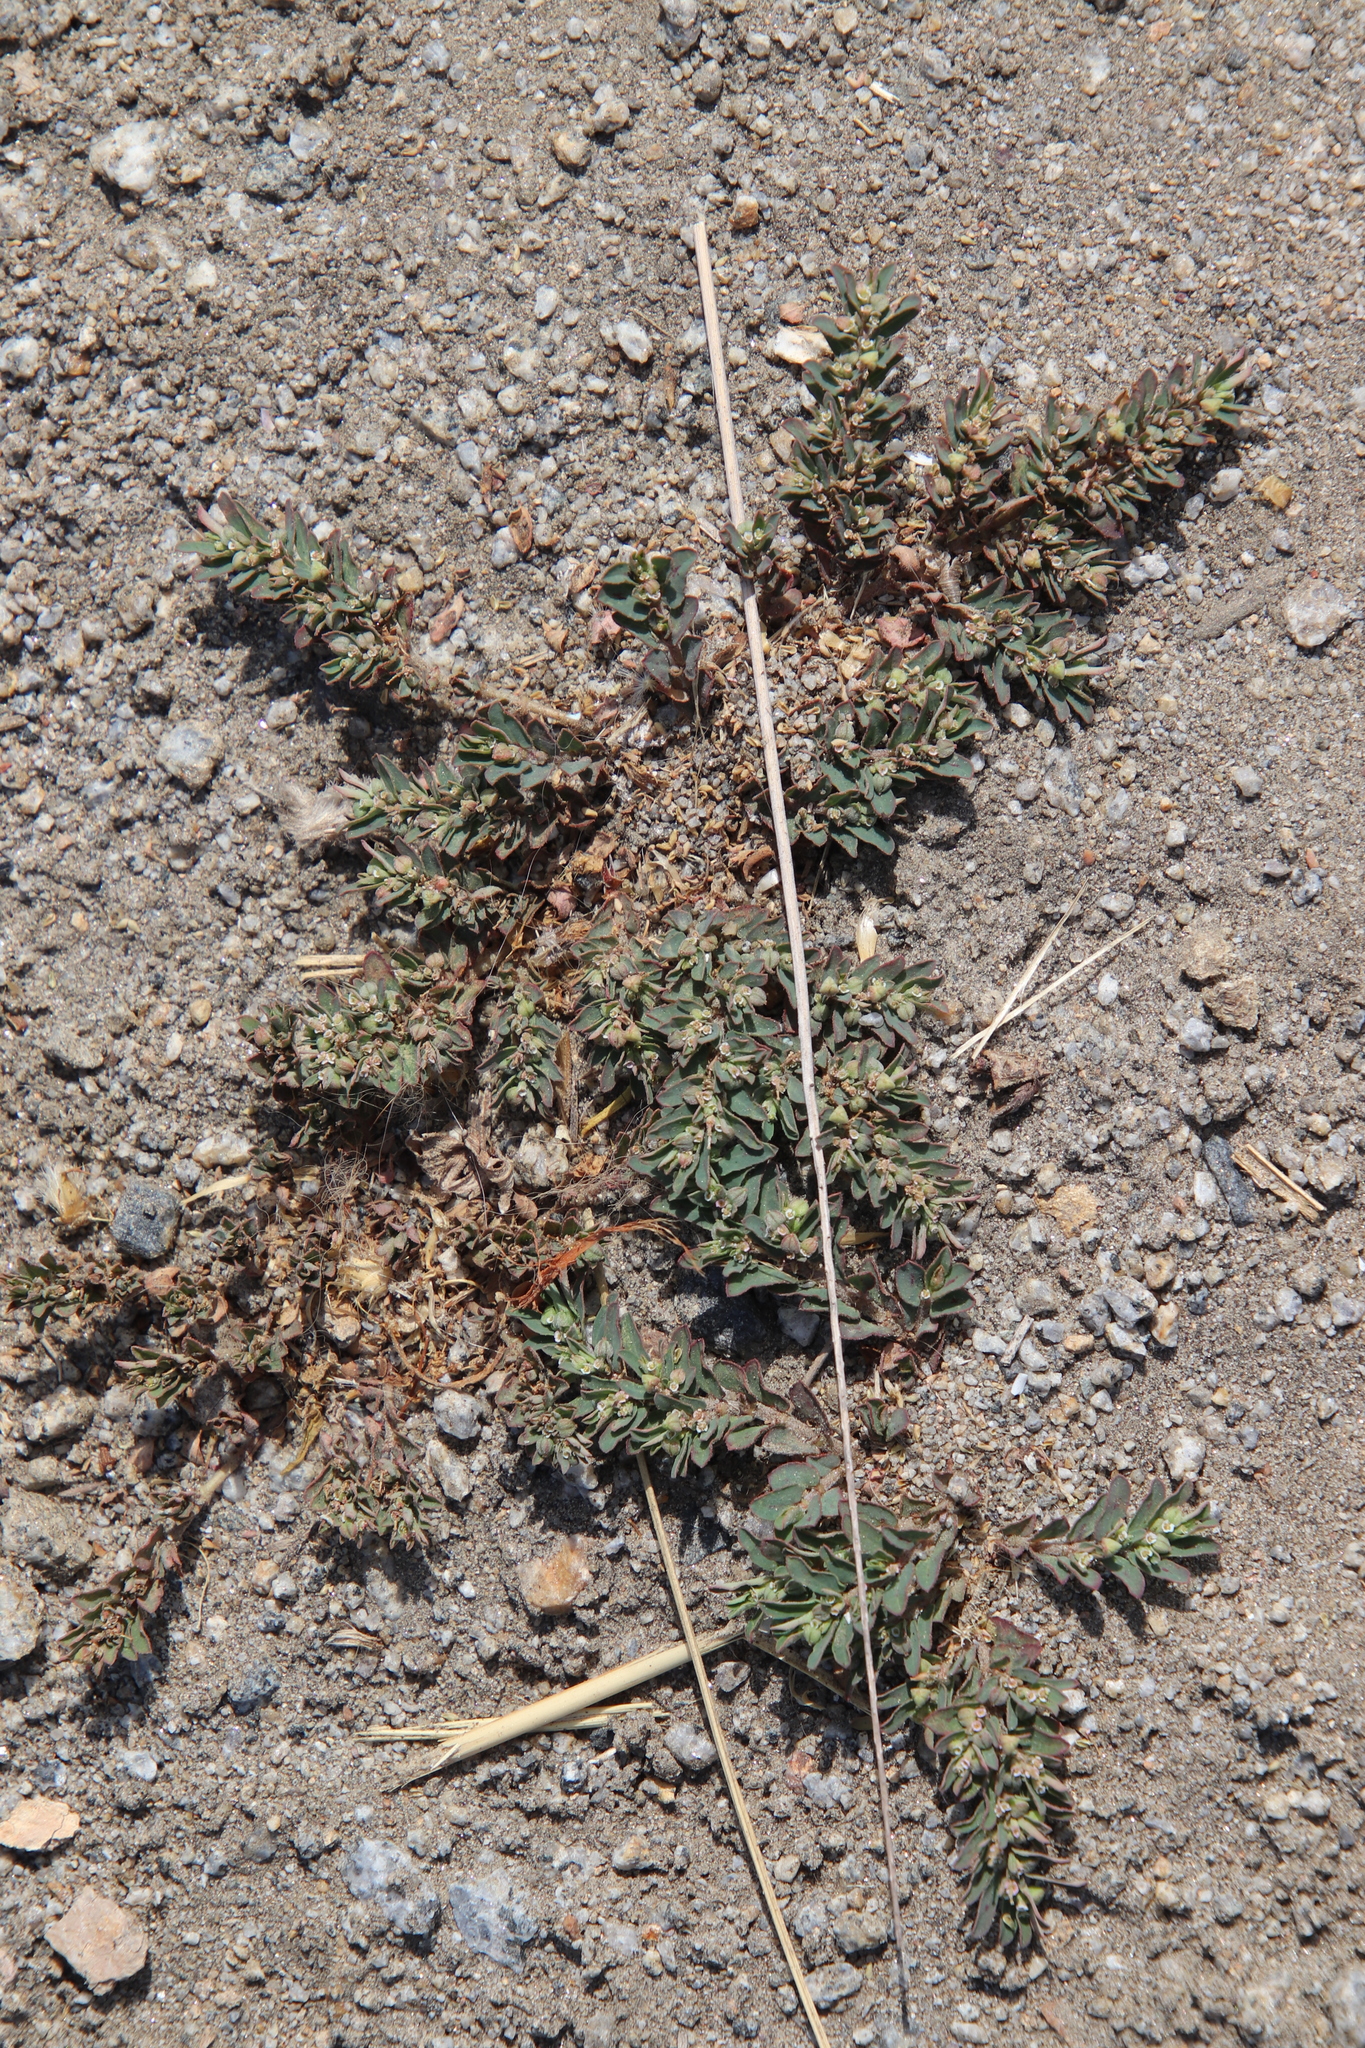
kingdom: Plantae
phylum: Tracheophyta
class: Magnoliopsida
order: Malpighiales
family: Euphorbiaceae
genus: Euphorbia
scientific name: Euphorbia maculata
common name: Spotted spurge
